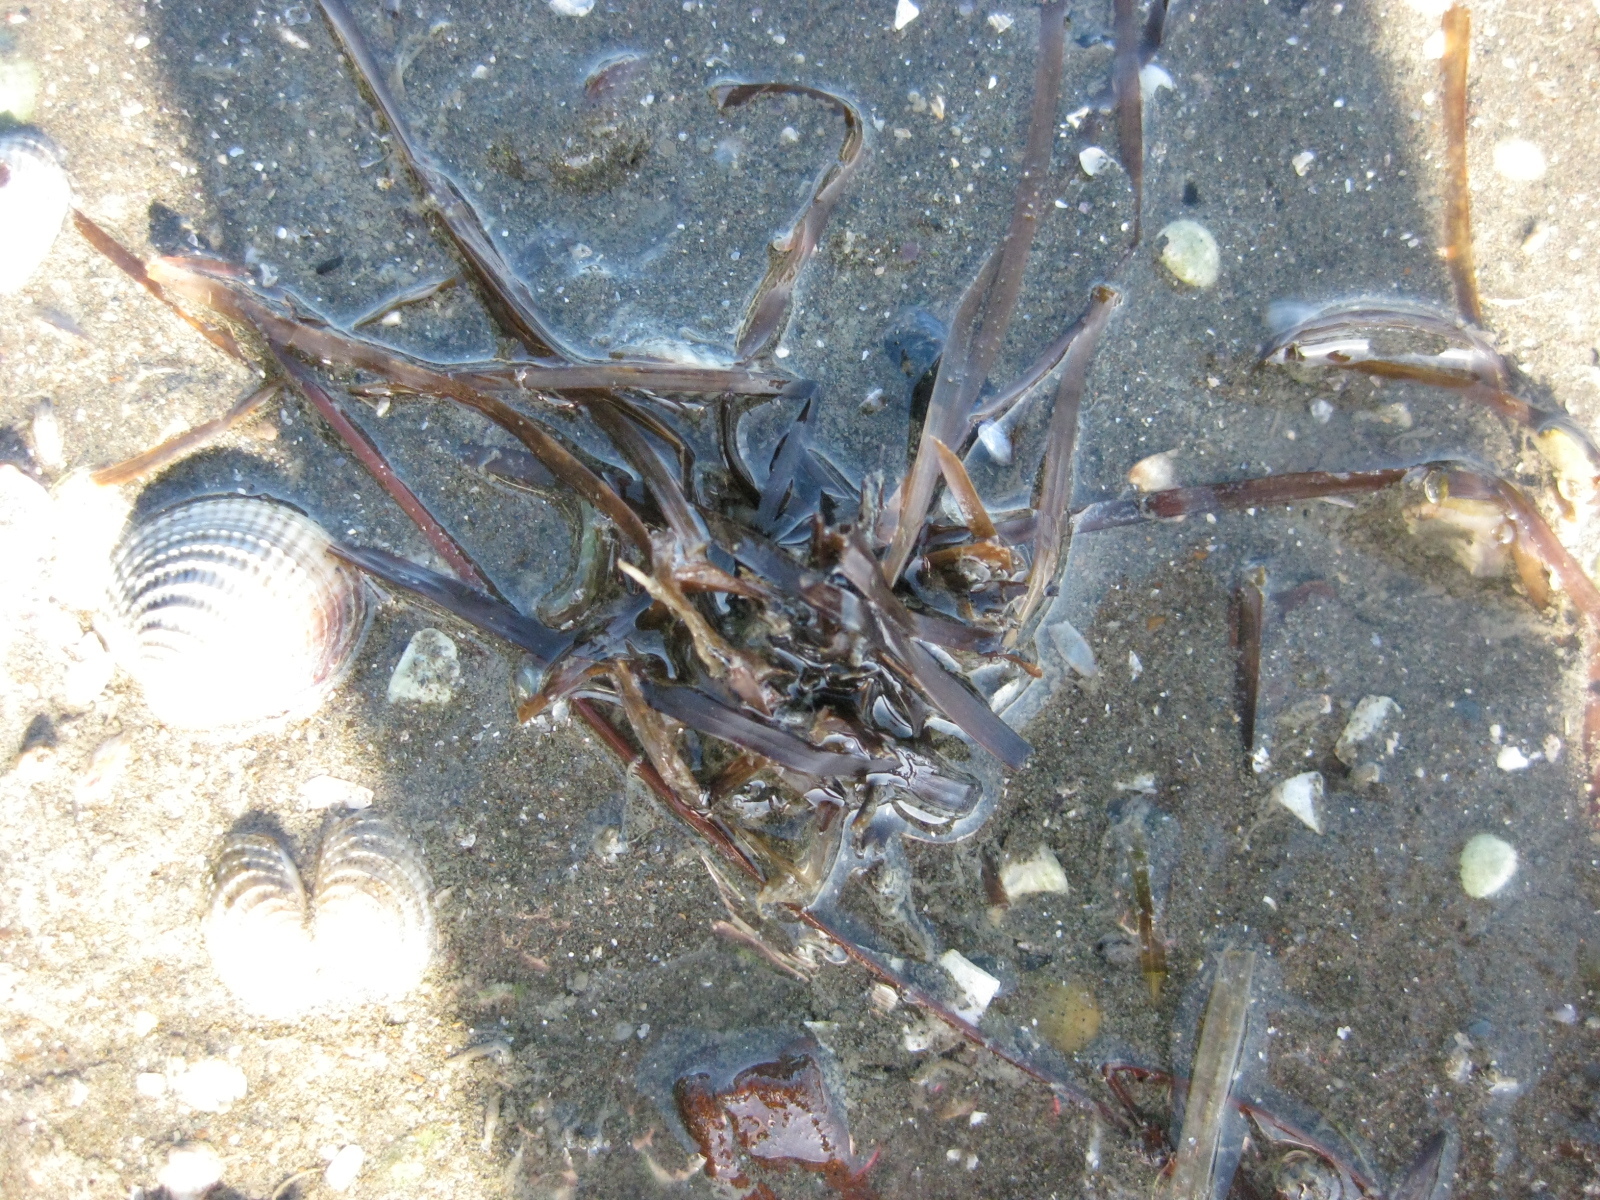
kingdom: Plantae
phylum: Tracheophyta
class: Liliopsida
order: Alismatales
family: Zosteraceae
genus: Zostera
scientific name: Zostera novazelandica
